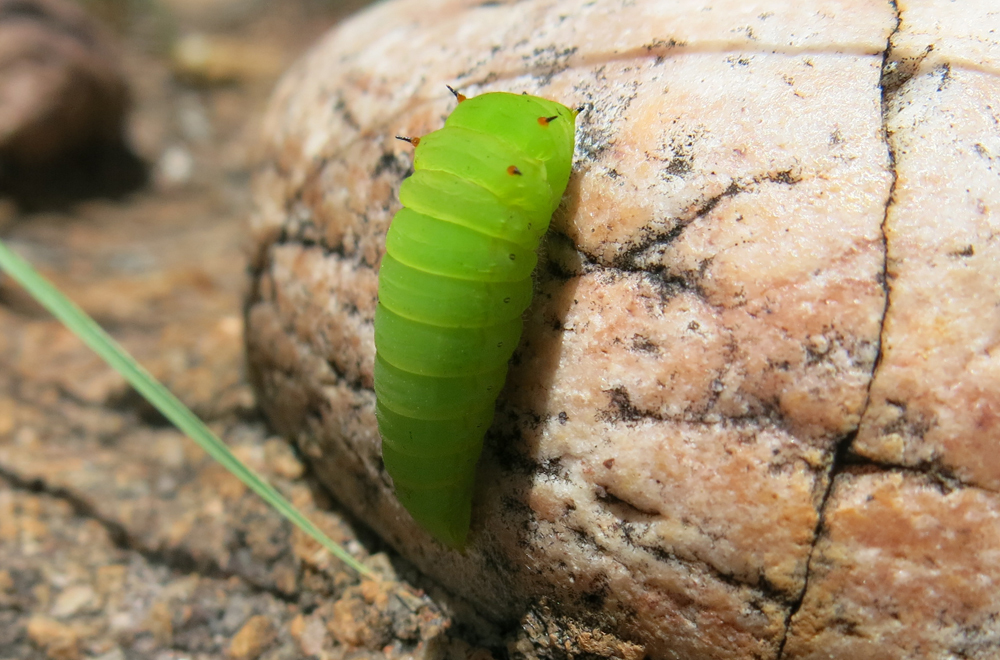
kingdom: Animalia
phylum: Arthropoda
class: Insecta
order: Lepidoptera
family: Papilionidae
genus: Graphium
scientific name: Graphium morania
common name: Small white-lady swordtail
